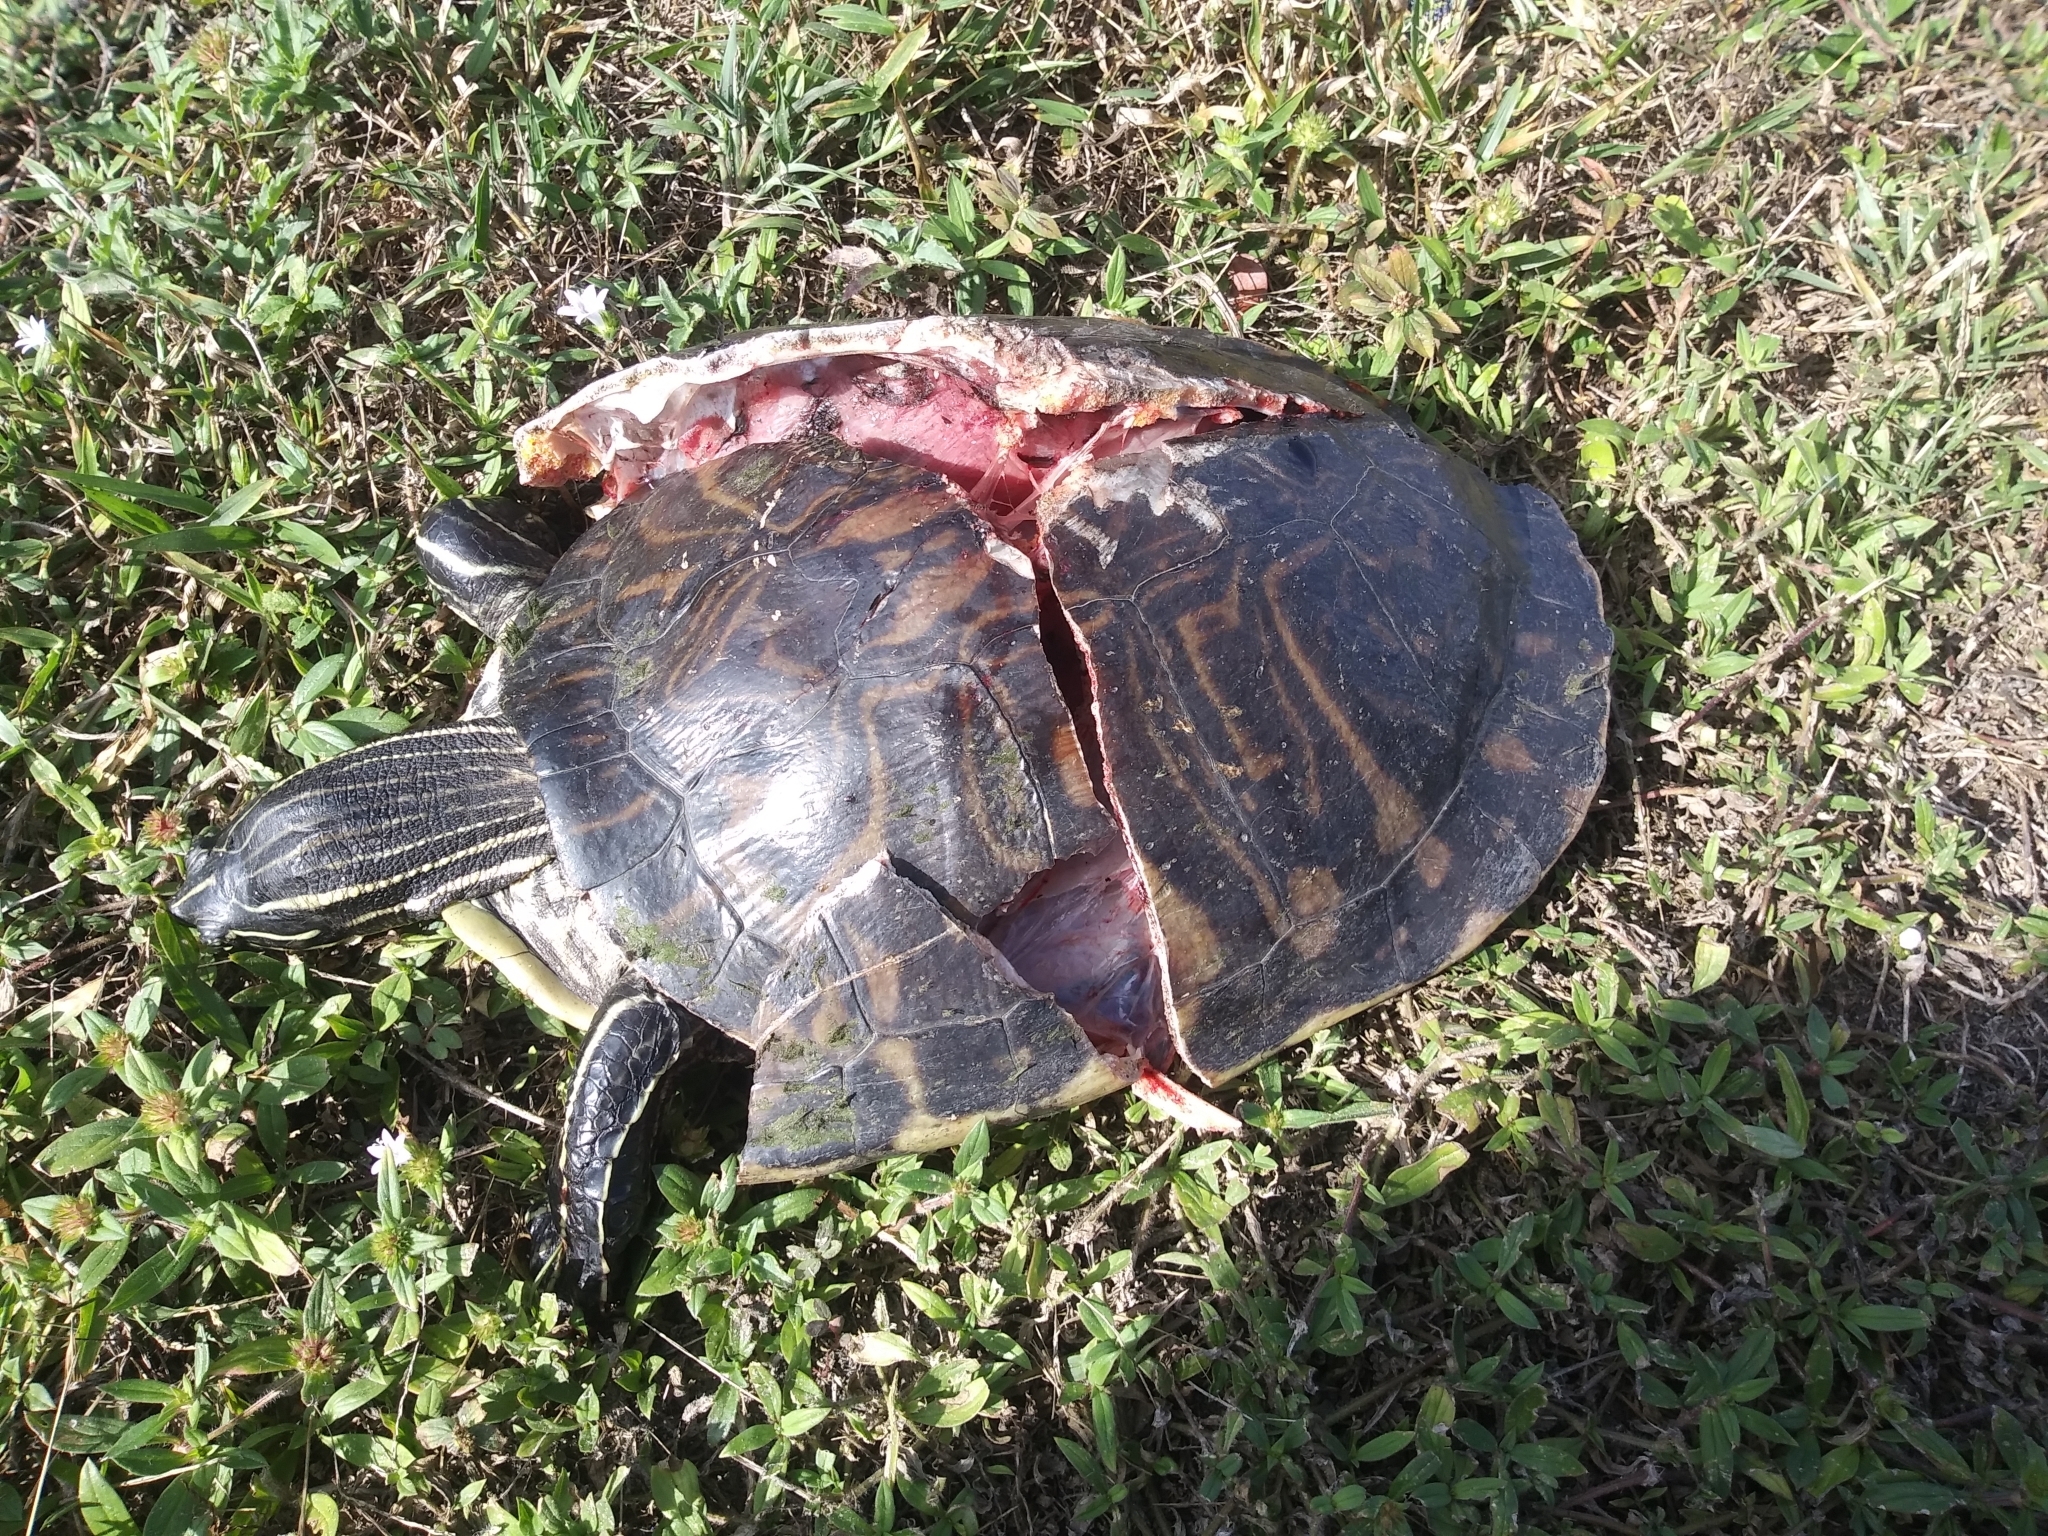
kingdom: Animalia
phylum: Chordata
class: Testudines
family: Emydidae
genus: Pseudemys
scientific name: Pseudemys peninsularis
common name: Peninsula cooter
